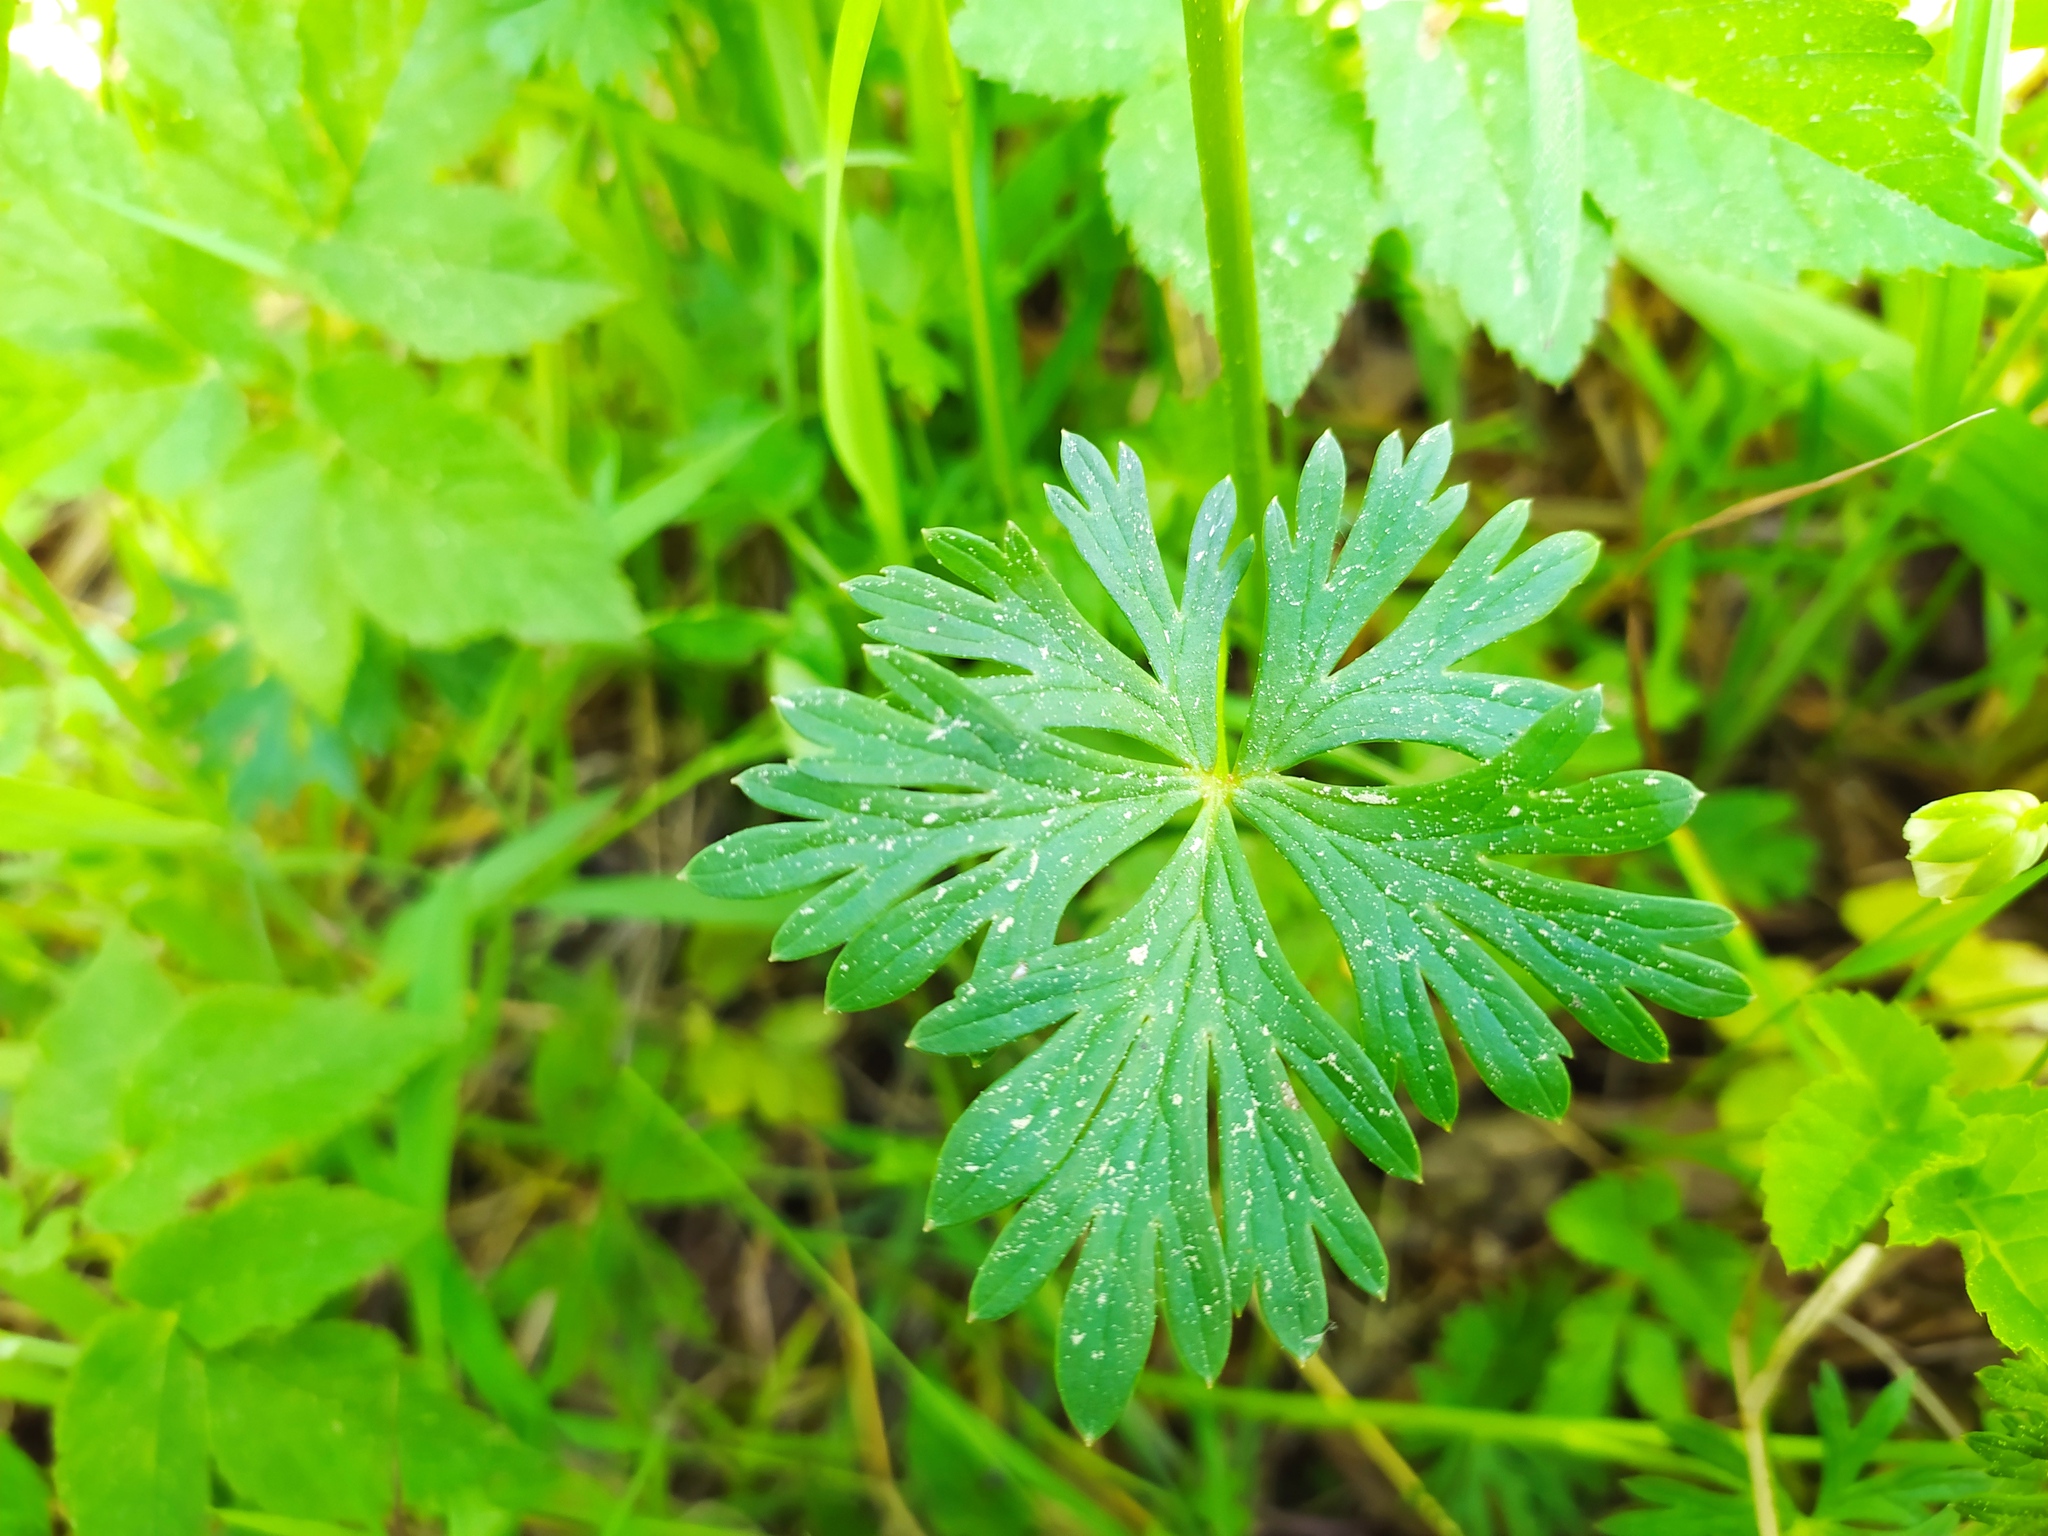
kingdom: Plantae
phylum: Tracheophyta
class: Magnoliopsida
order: Ranunculales
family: Ranunculaceae
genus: Aconitum
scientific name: Aconitum variegatum
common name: Manchurian monkshood
